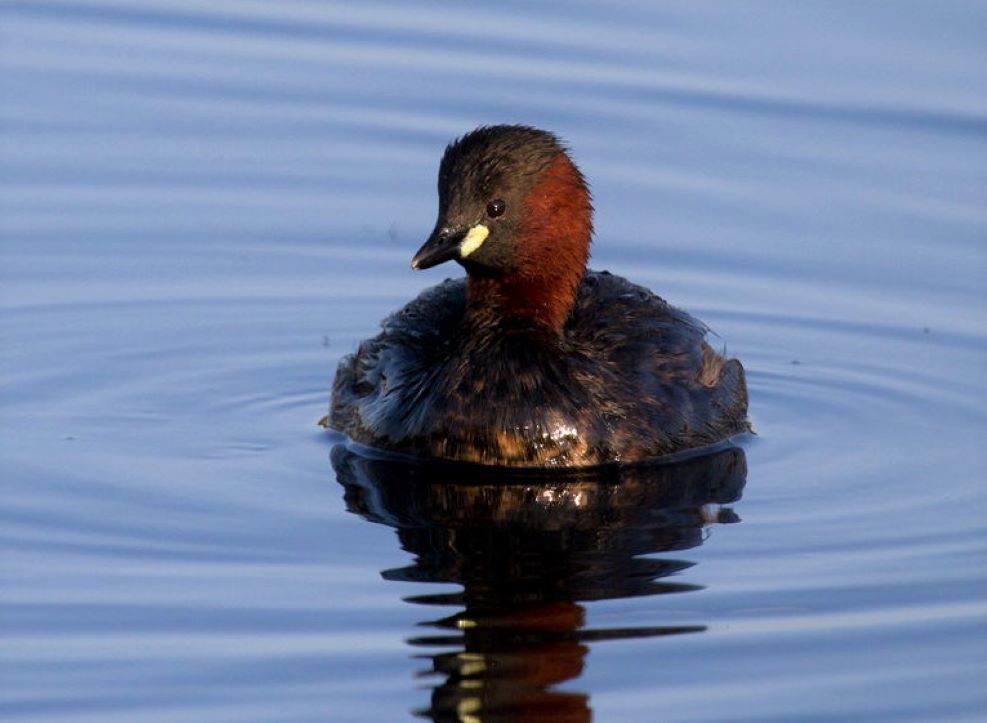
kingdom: Animalia
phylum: Chordata
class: Aves
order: Podicipediformes
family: Podicipedidae
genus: Tachybaptus
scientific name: Tachybaptus ruficollis
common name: Little grebe
